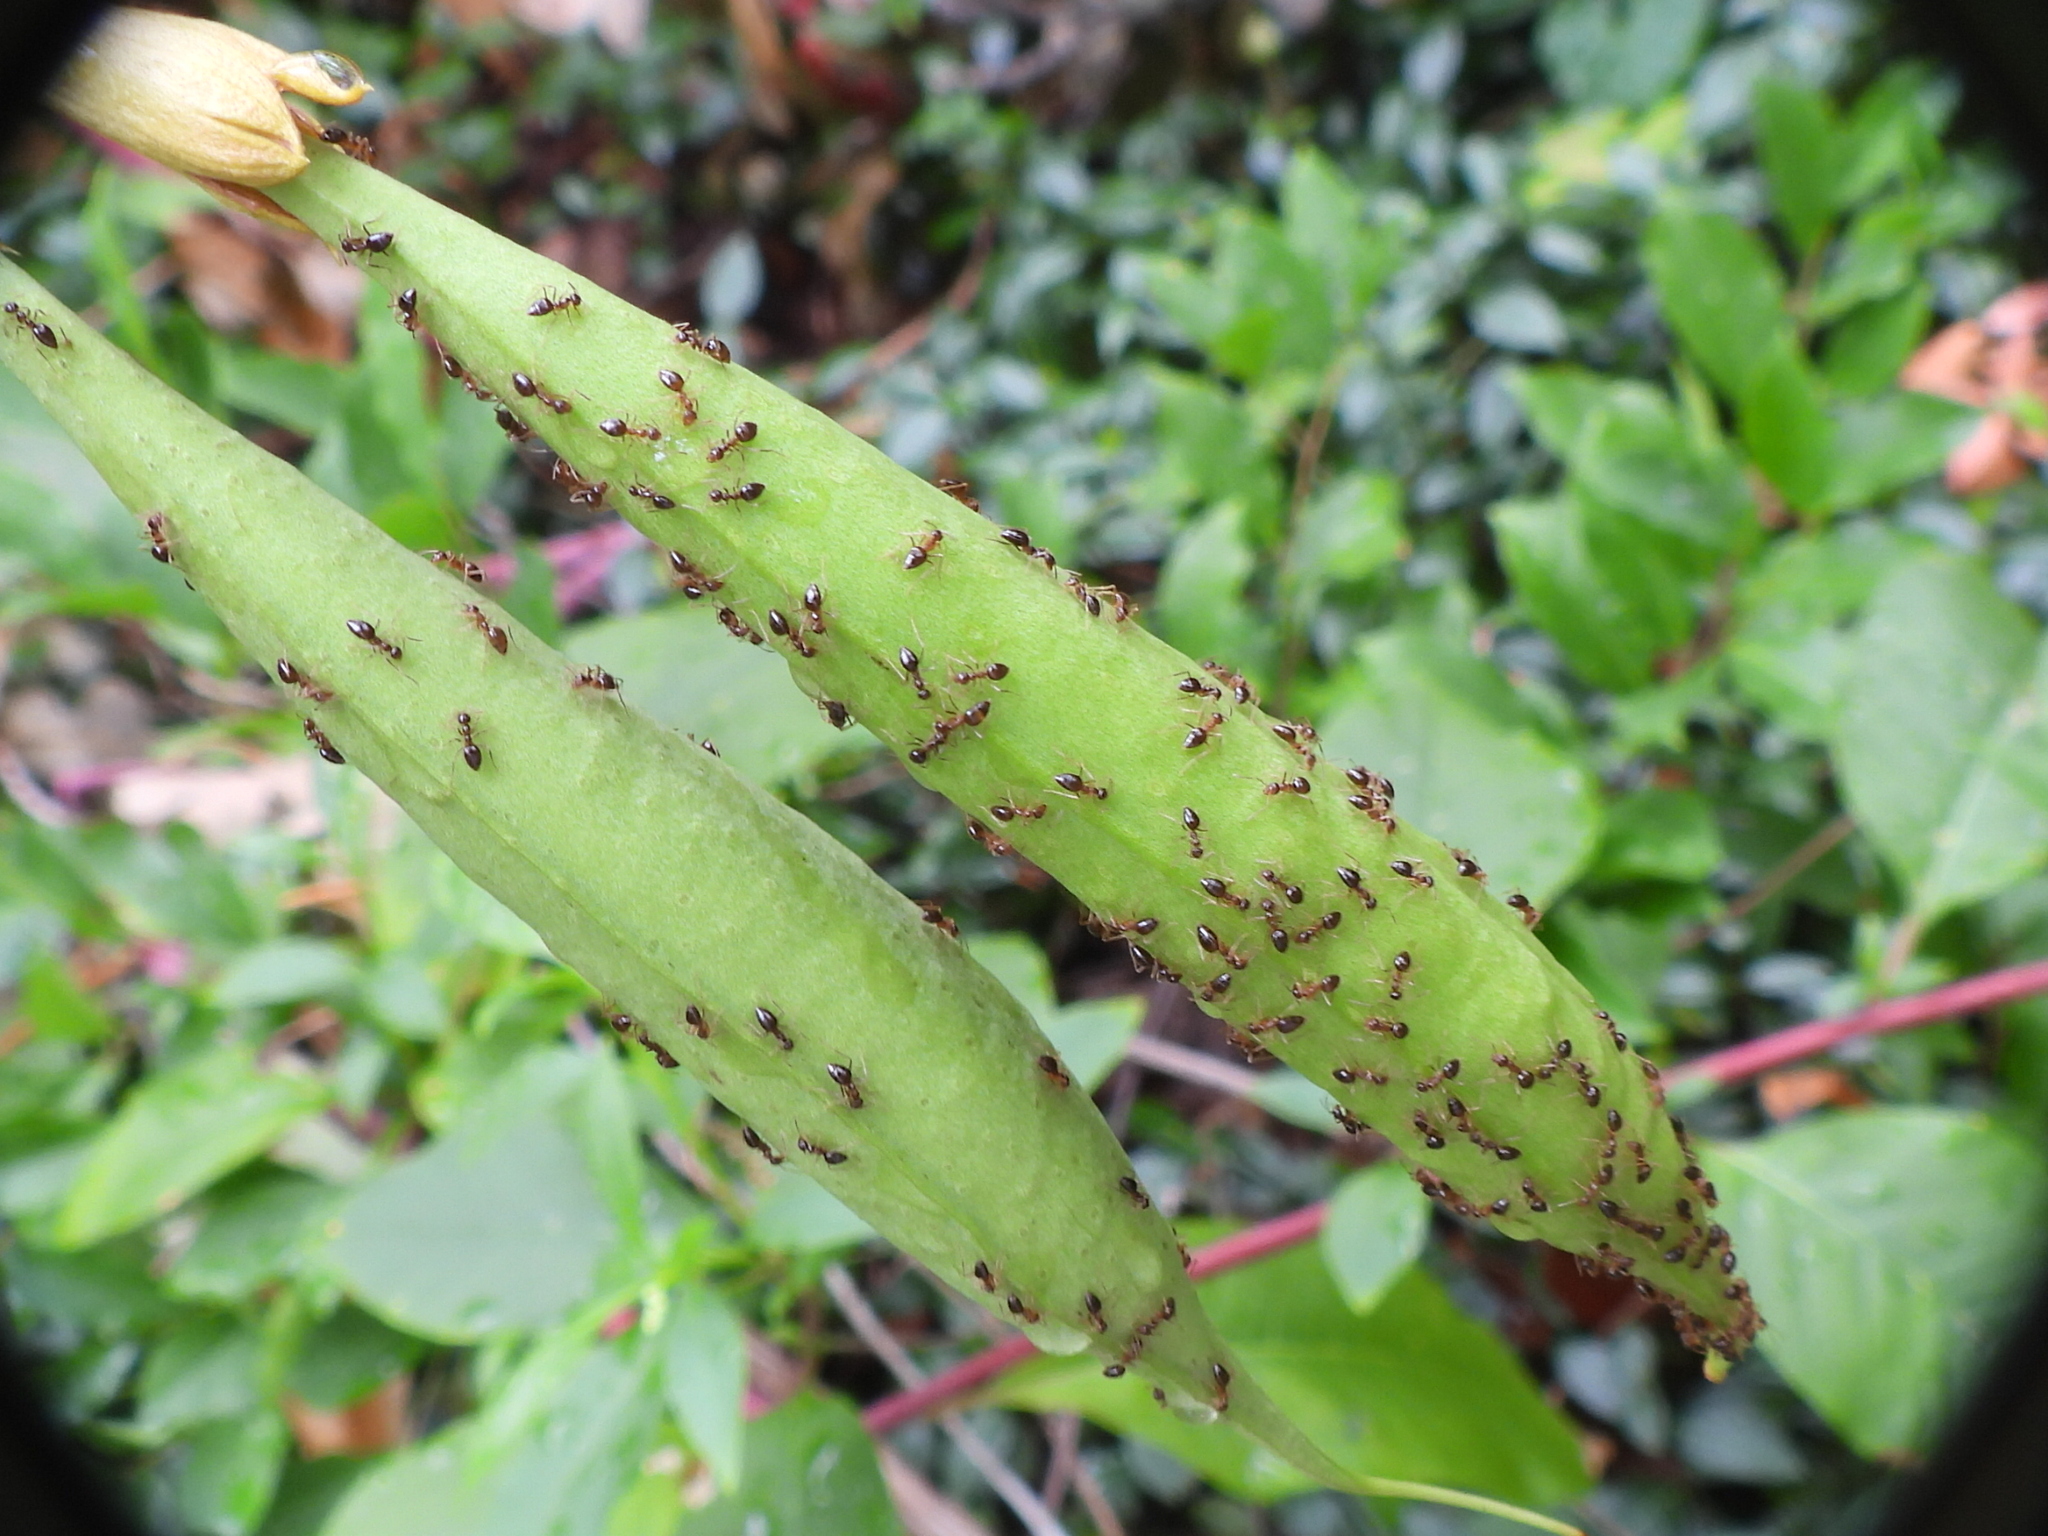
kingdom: Animalia
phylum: Arthropoda
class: Insecta
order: Hymenoptera
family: Formicidae
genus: Prenolepis
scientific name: Prenolepis imparis
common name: Small honey ant
